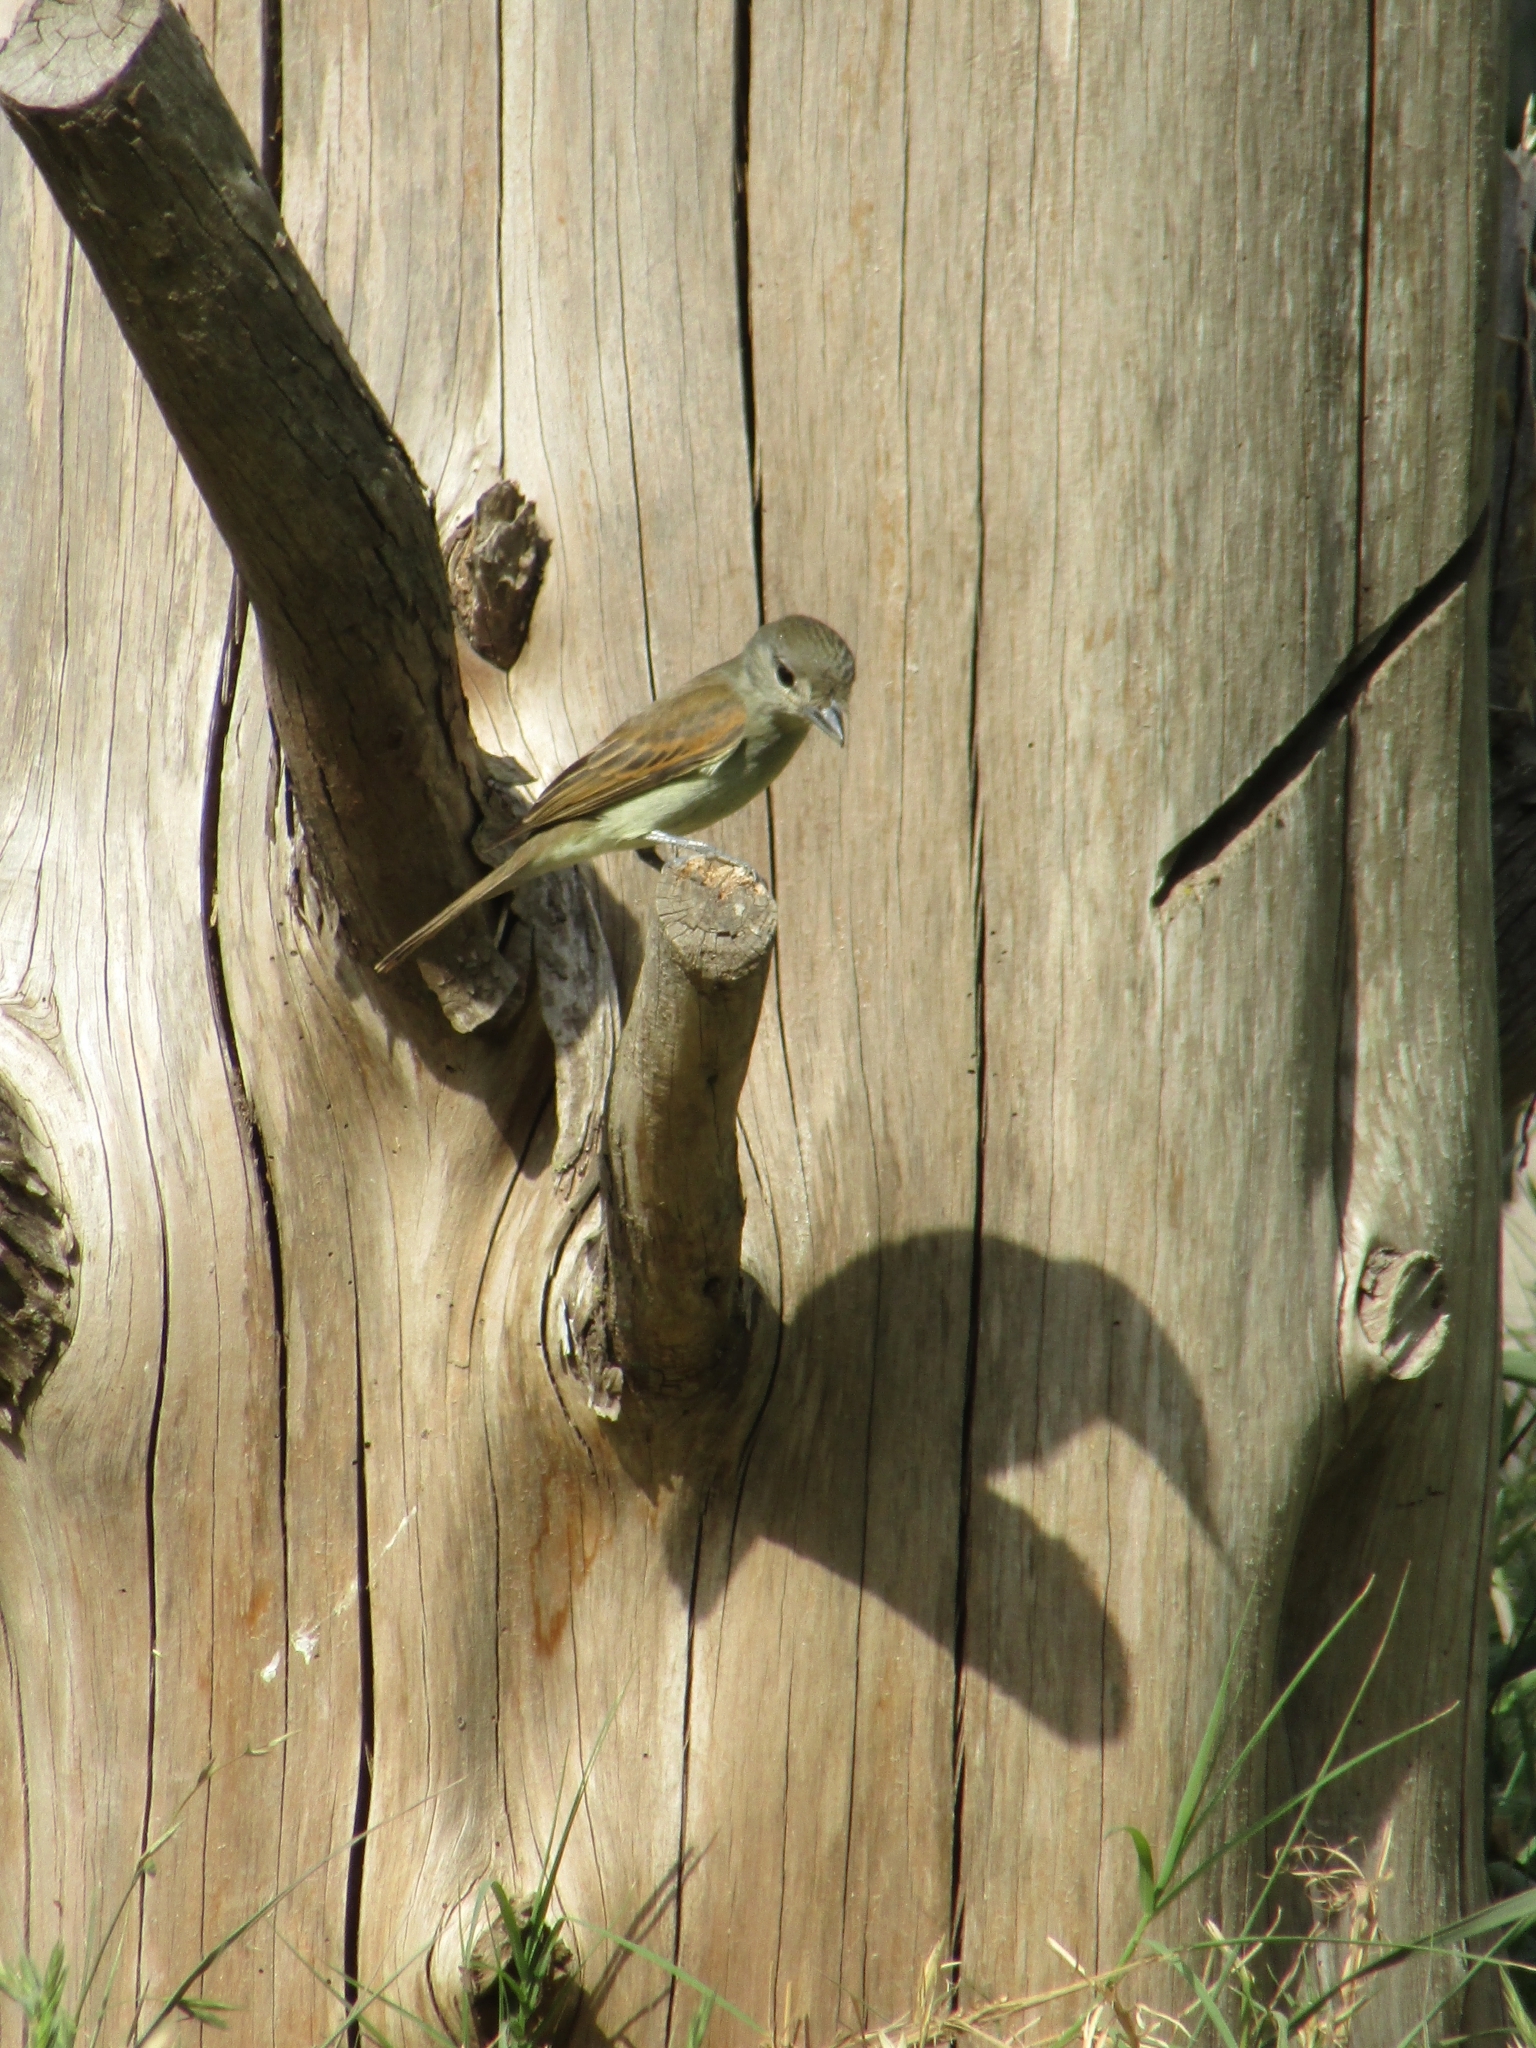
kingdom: Animalia
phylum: Chordata
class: Aves
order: Passeriformes
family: Cotingidae
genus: Pachyramphus
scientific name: Pachyramphus polychopterus
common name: White-winged becard
